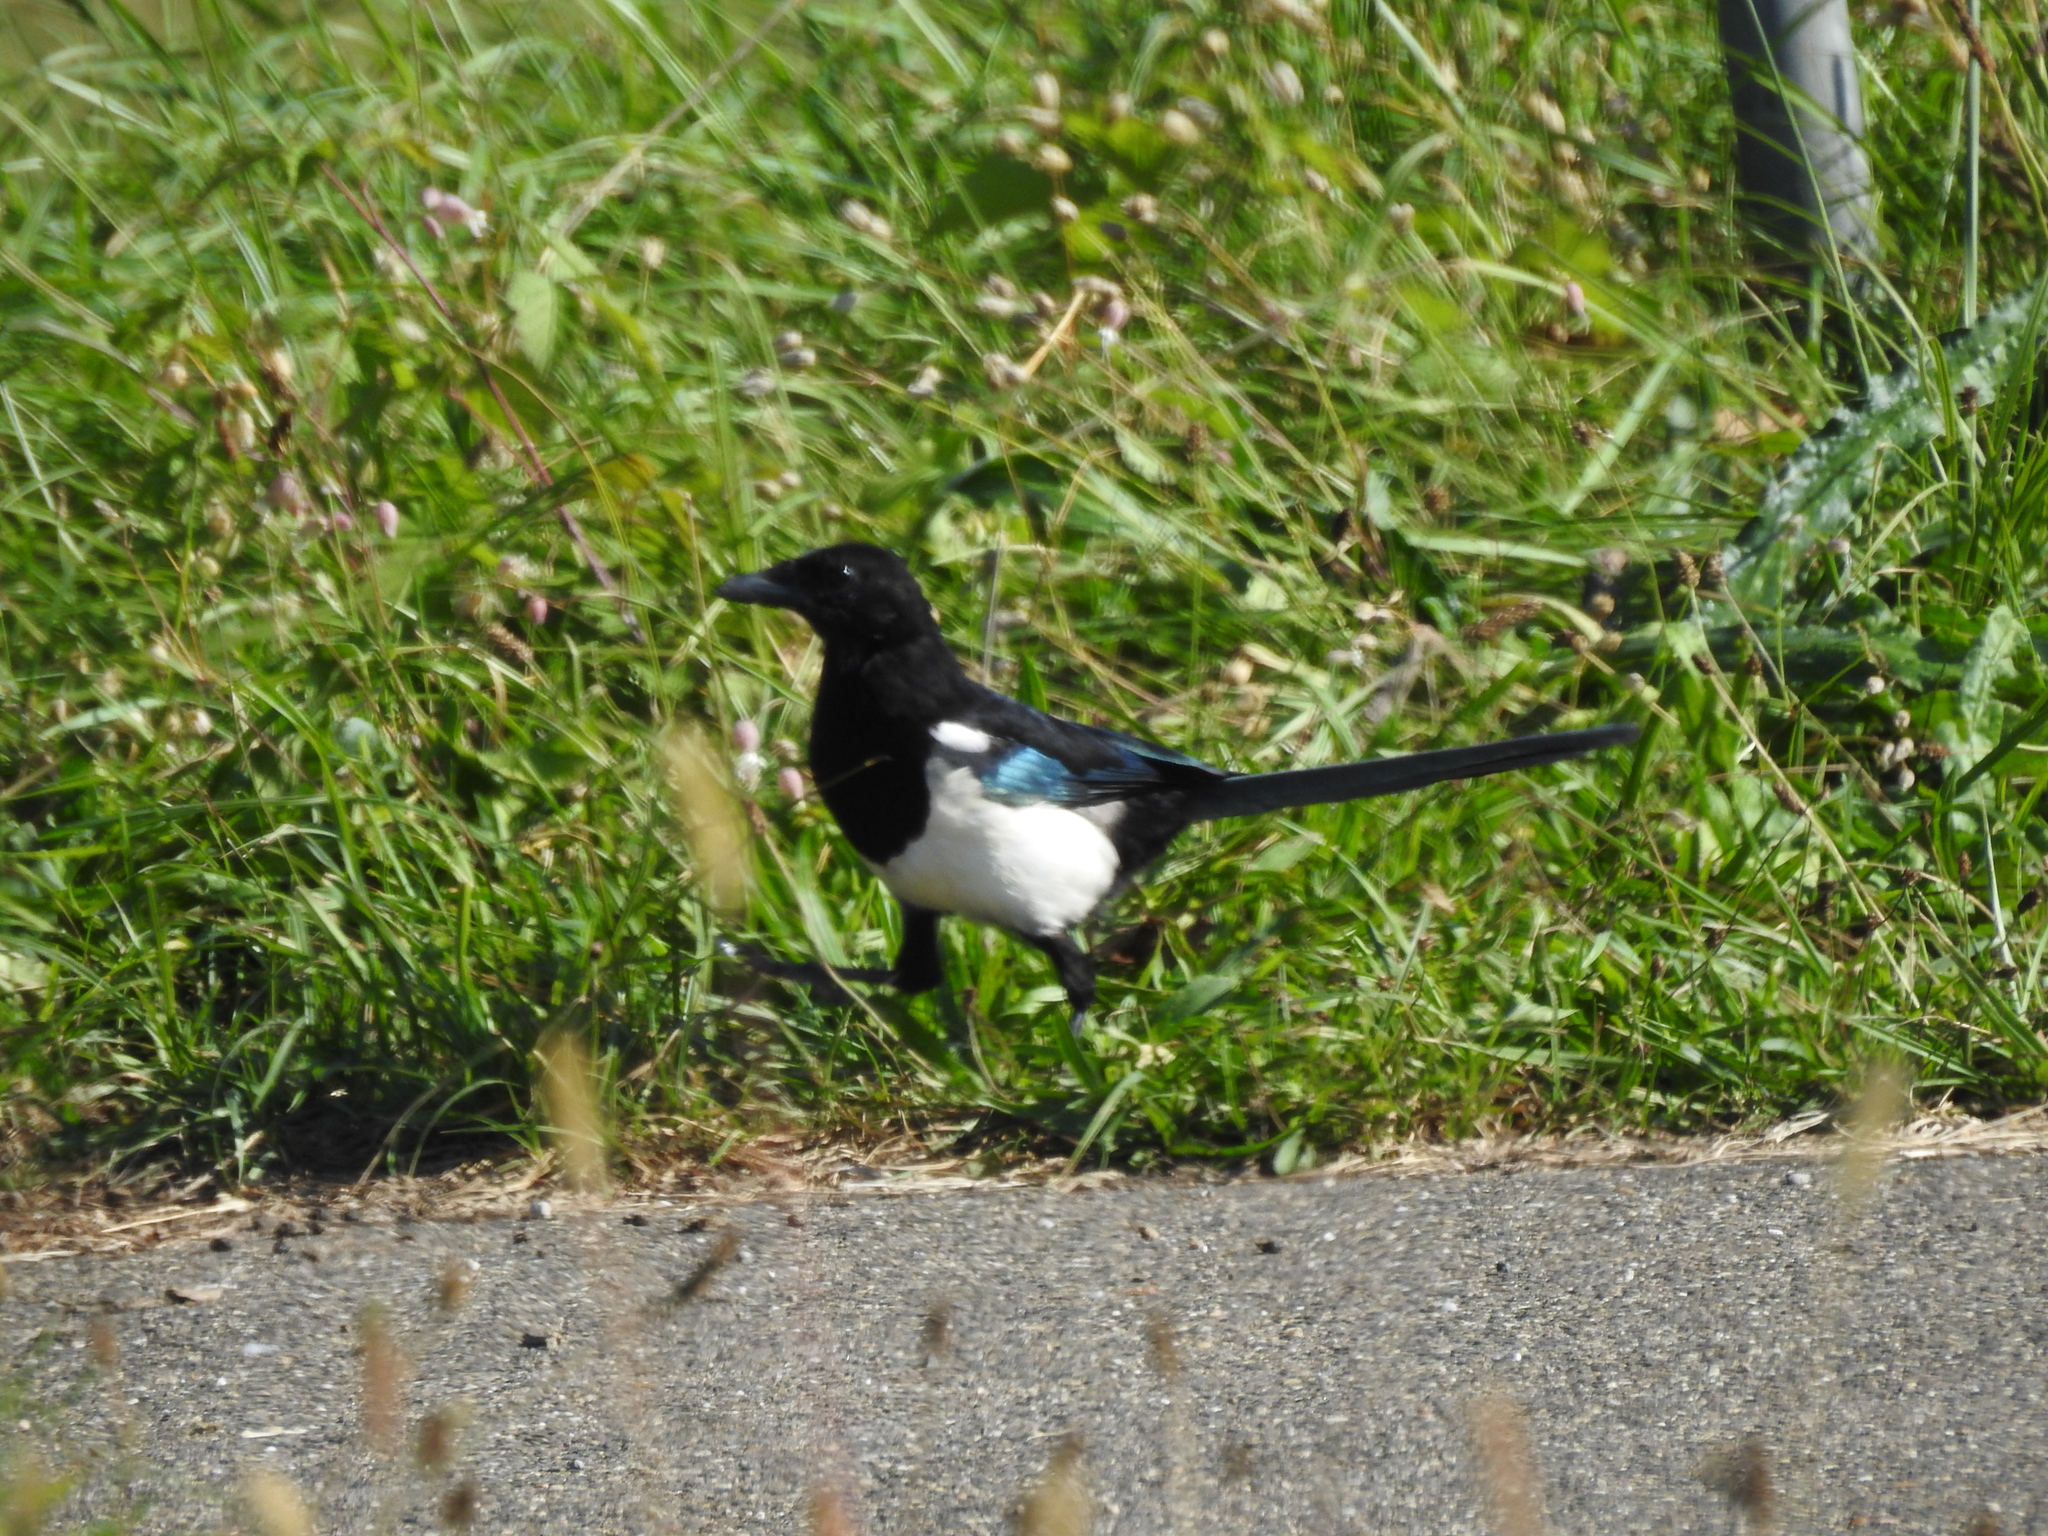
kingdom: Animalia
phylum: Chordata
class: Aves
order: Passeriformes
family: Corvidae
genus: Pica
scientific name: Pica pica
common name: Eurasian magpie
